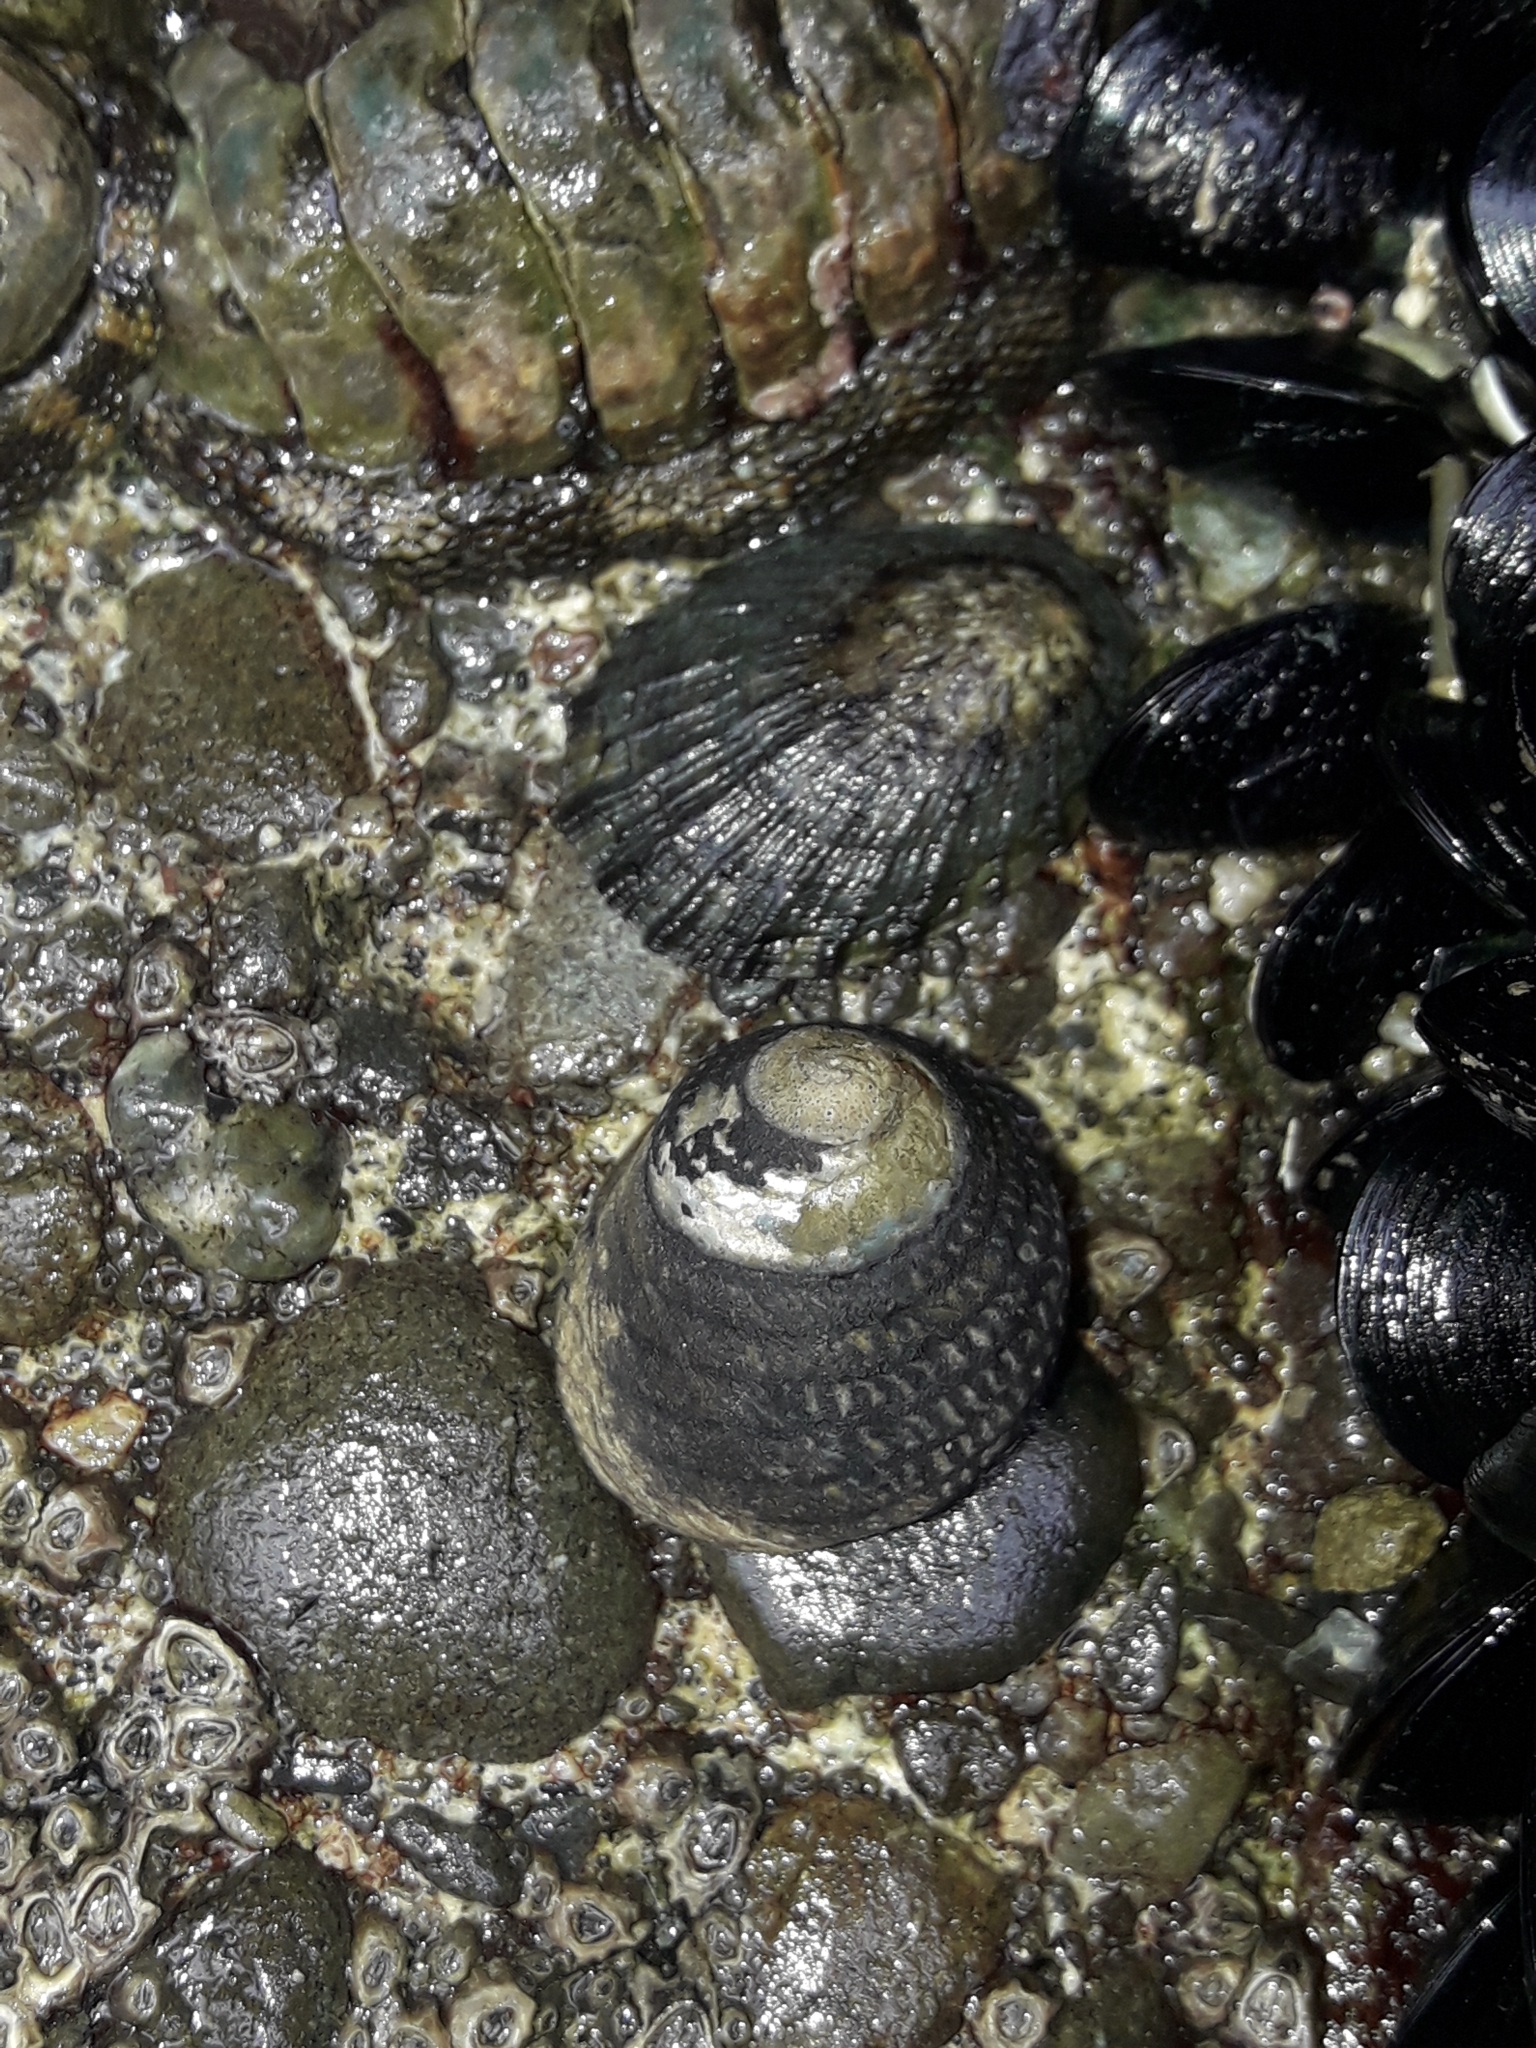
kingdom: Animalia
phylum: Mollusca
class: Gastropoda
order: Trochida
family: Trochidae
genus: Diloma
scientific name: Diloma aethiops
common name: Scorched monodont
